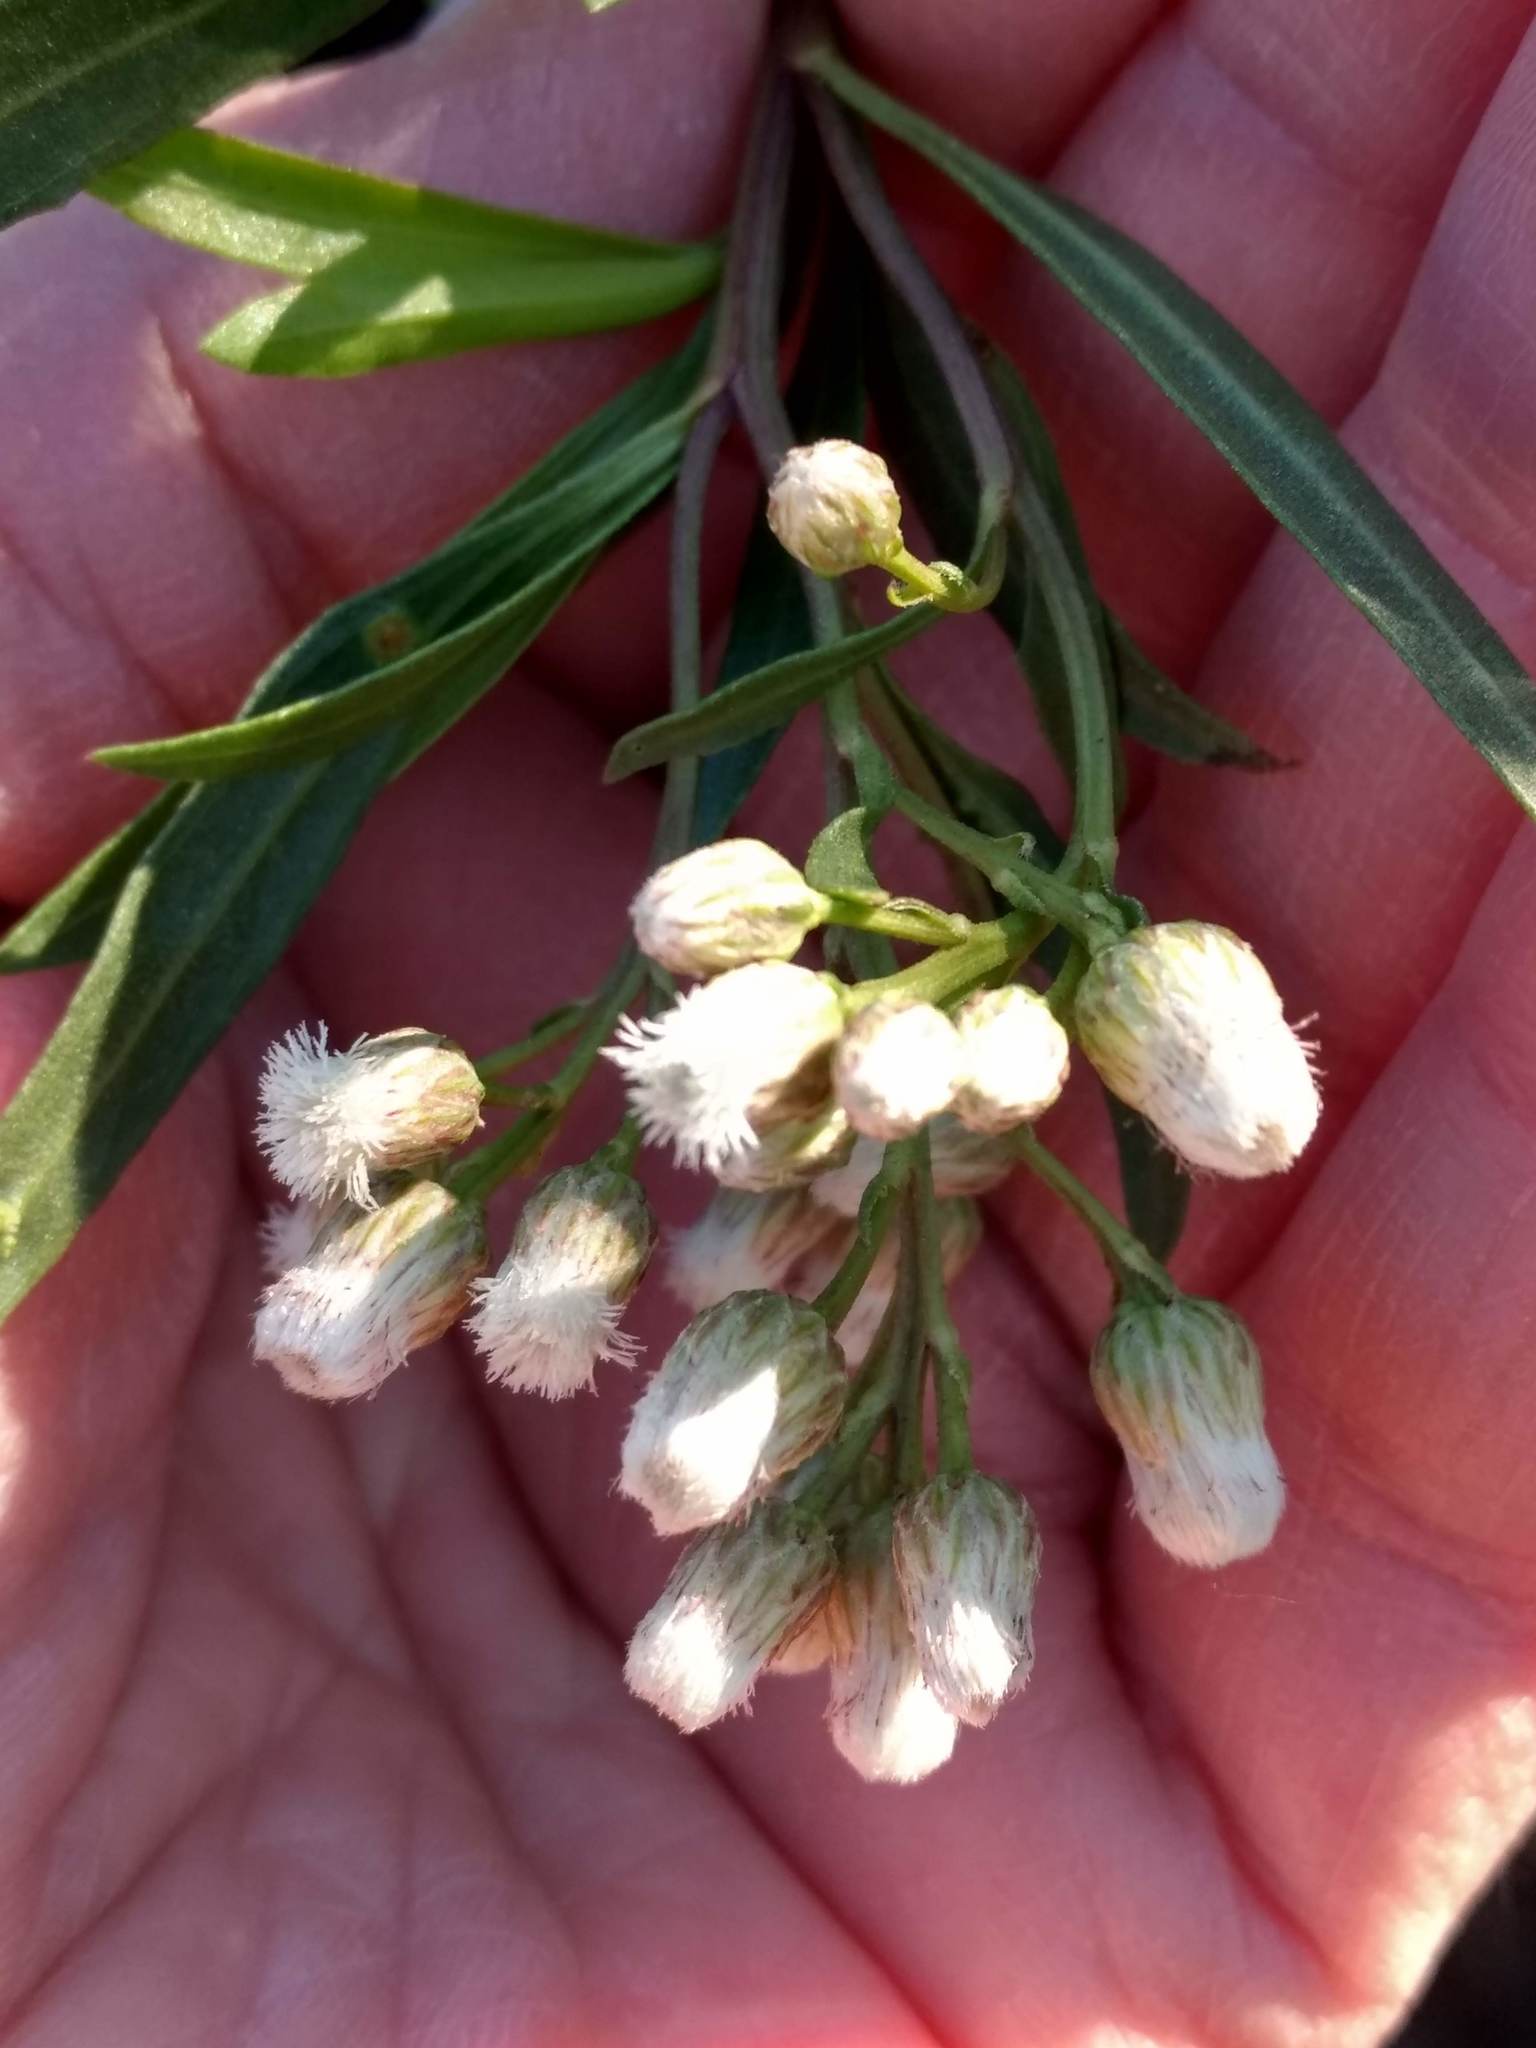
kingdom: Plantae
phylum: Tracheophyta
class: Magnoliopsida
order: Asterales
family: Asteraceae
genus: Baccharis
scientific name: Baccharis salicifolia
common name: Sticky baccharis
